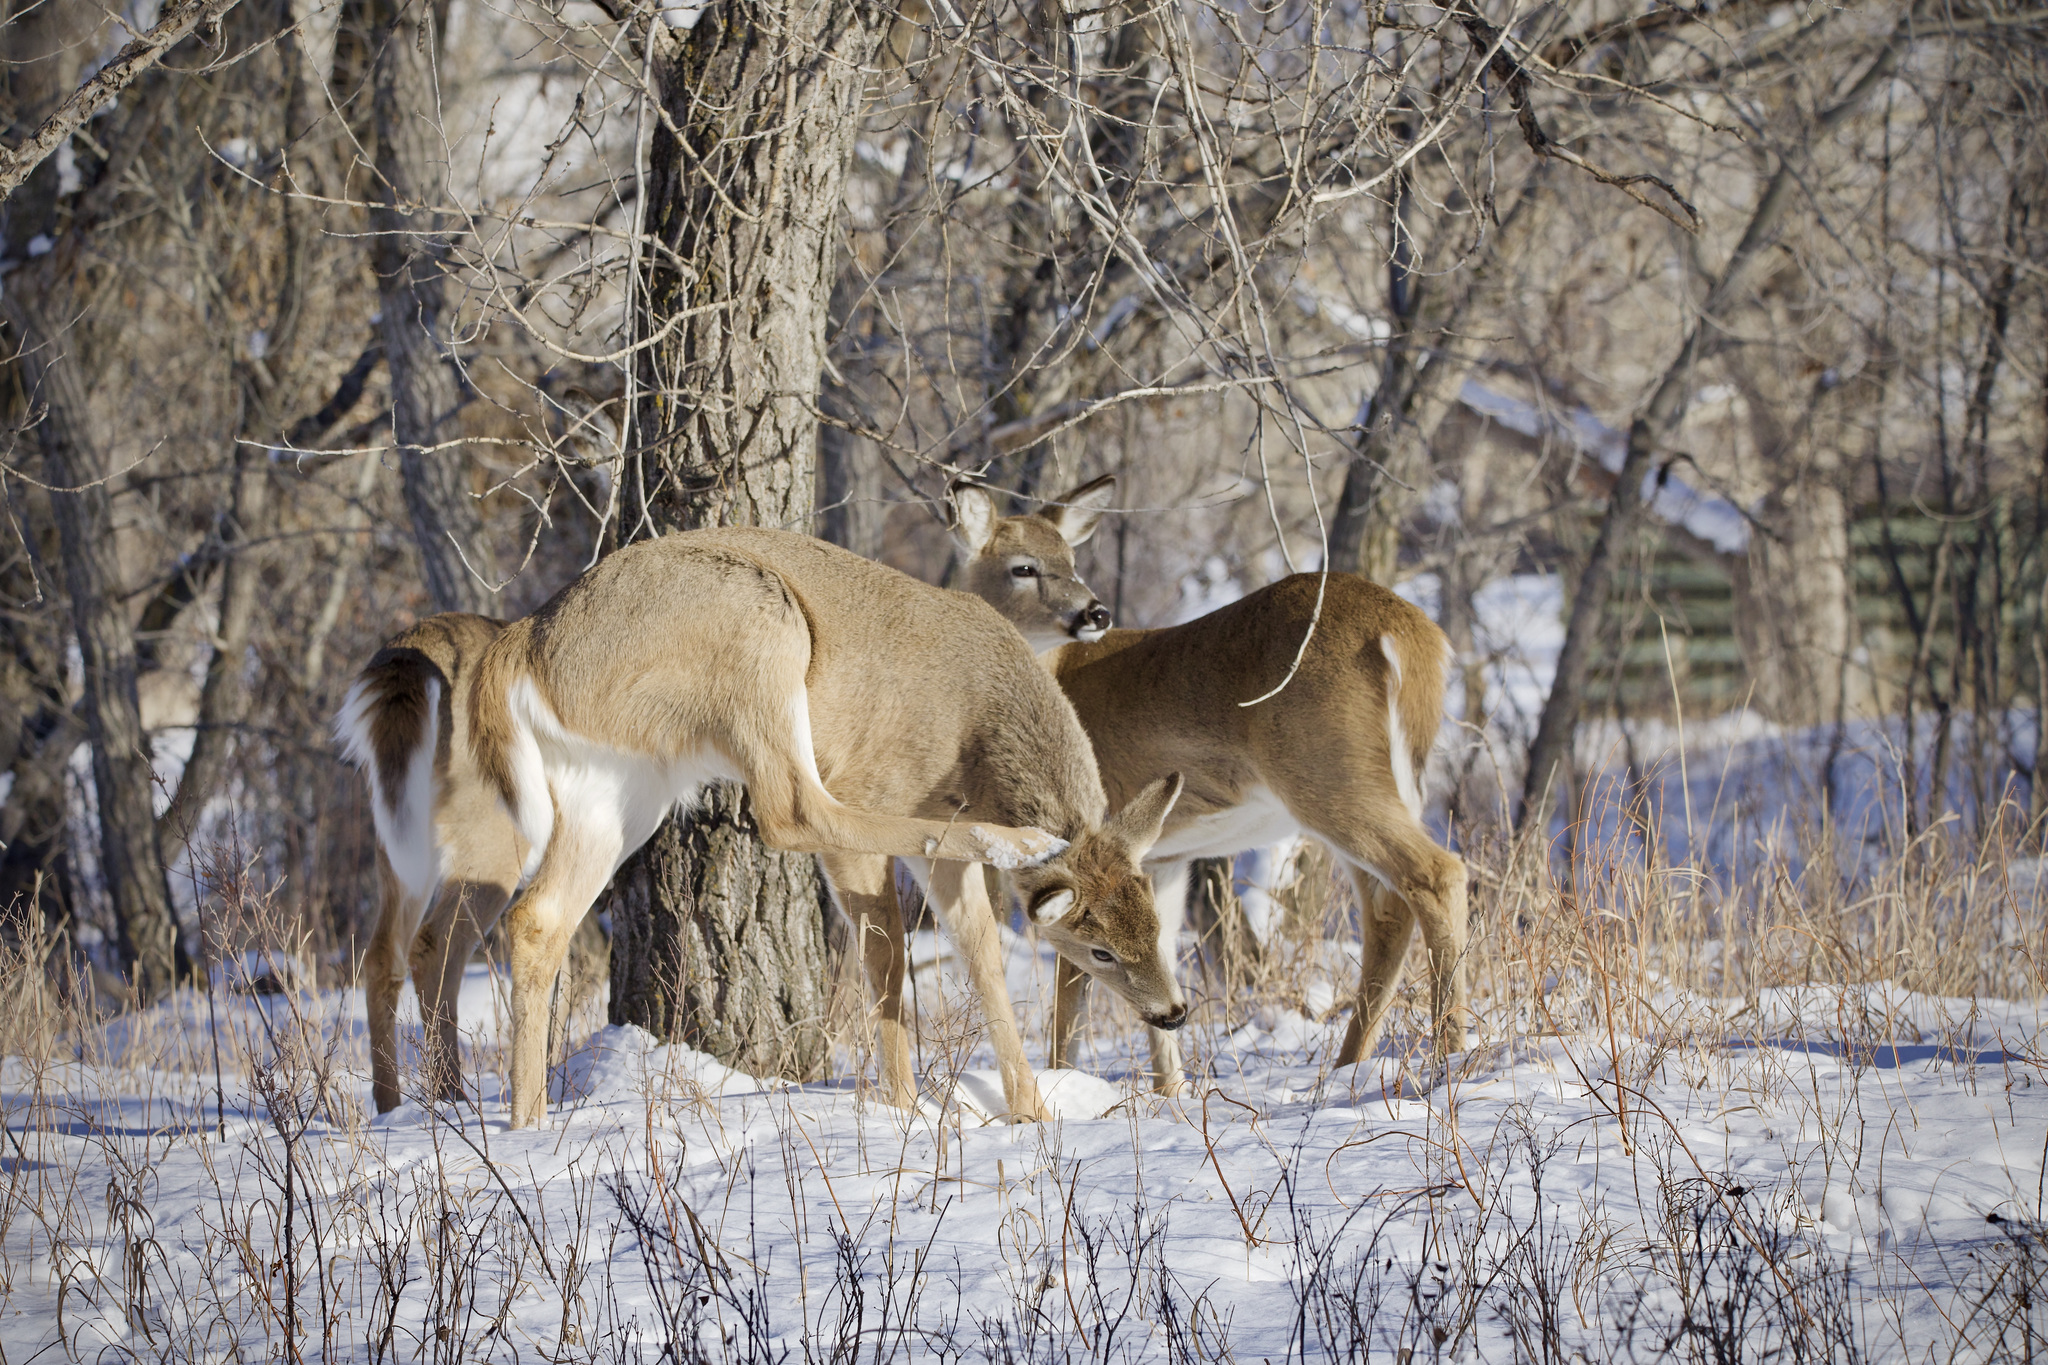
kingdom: Animalia
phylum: Chordata
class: Mammalia
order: Artiodactyla
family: Cervidae
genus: Odocoileus
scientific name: Odocoileus virginianus
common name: White-tailed deer
